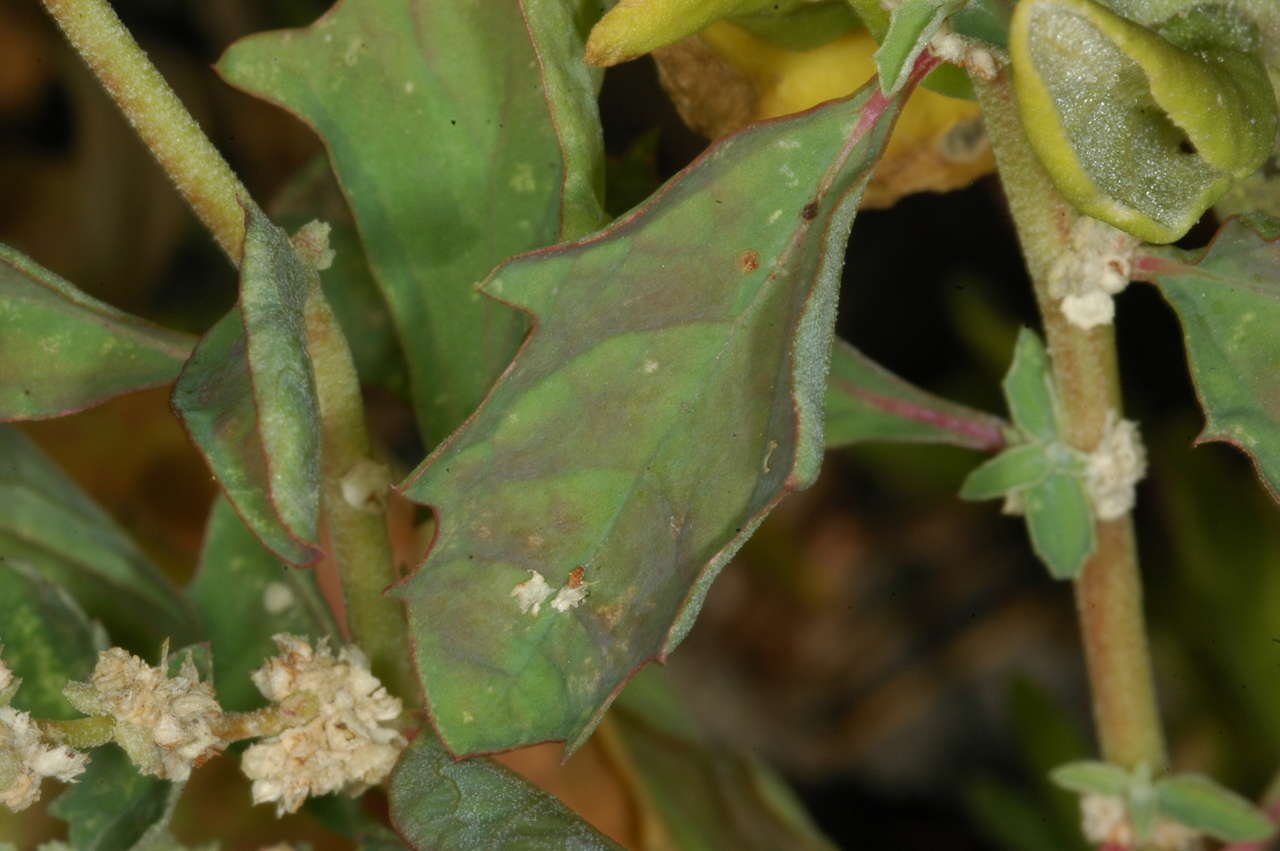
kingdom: Plantae
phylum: Tracheophyta
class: Magnoliopsida
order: Caryophyllales
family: Amaranthaceae
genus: Atriplex
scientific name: Atriplex suberecta
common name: Australian orache
